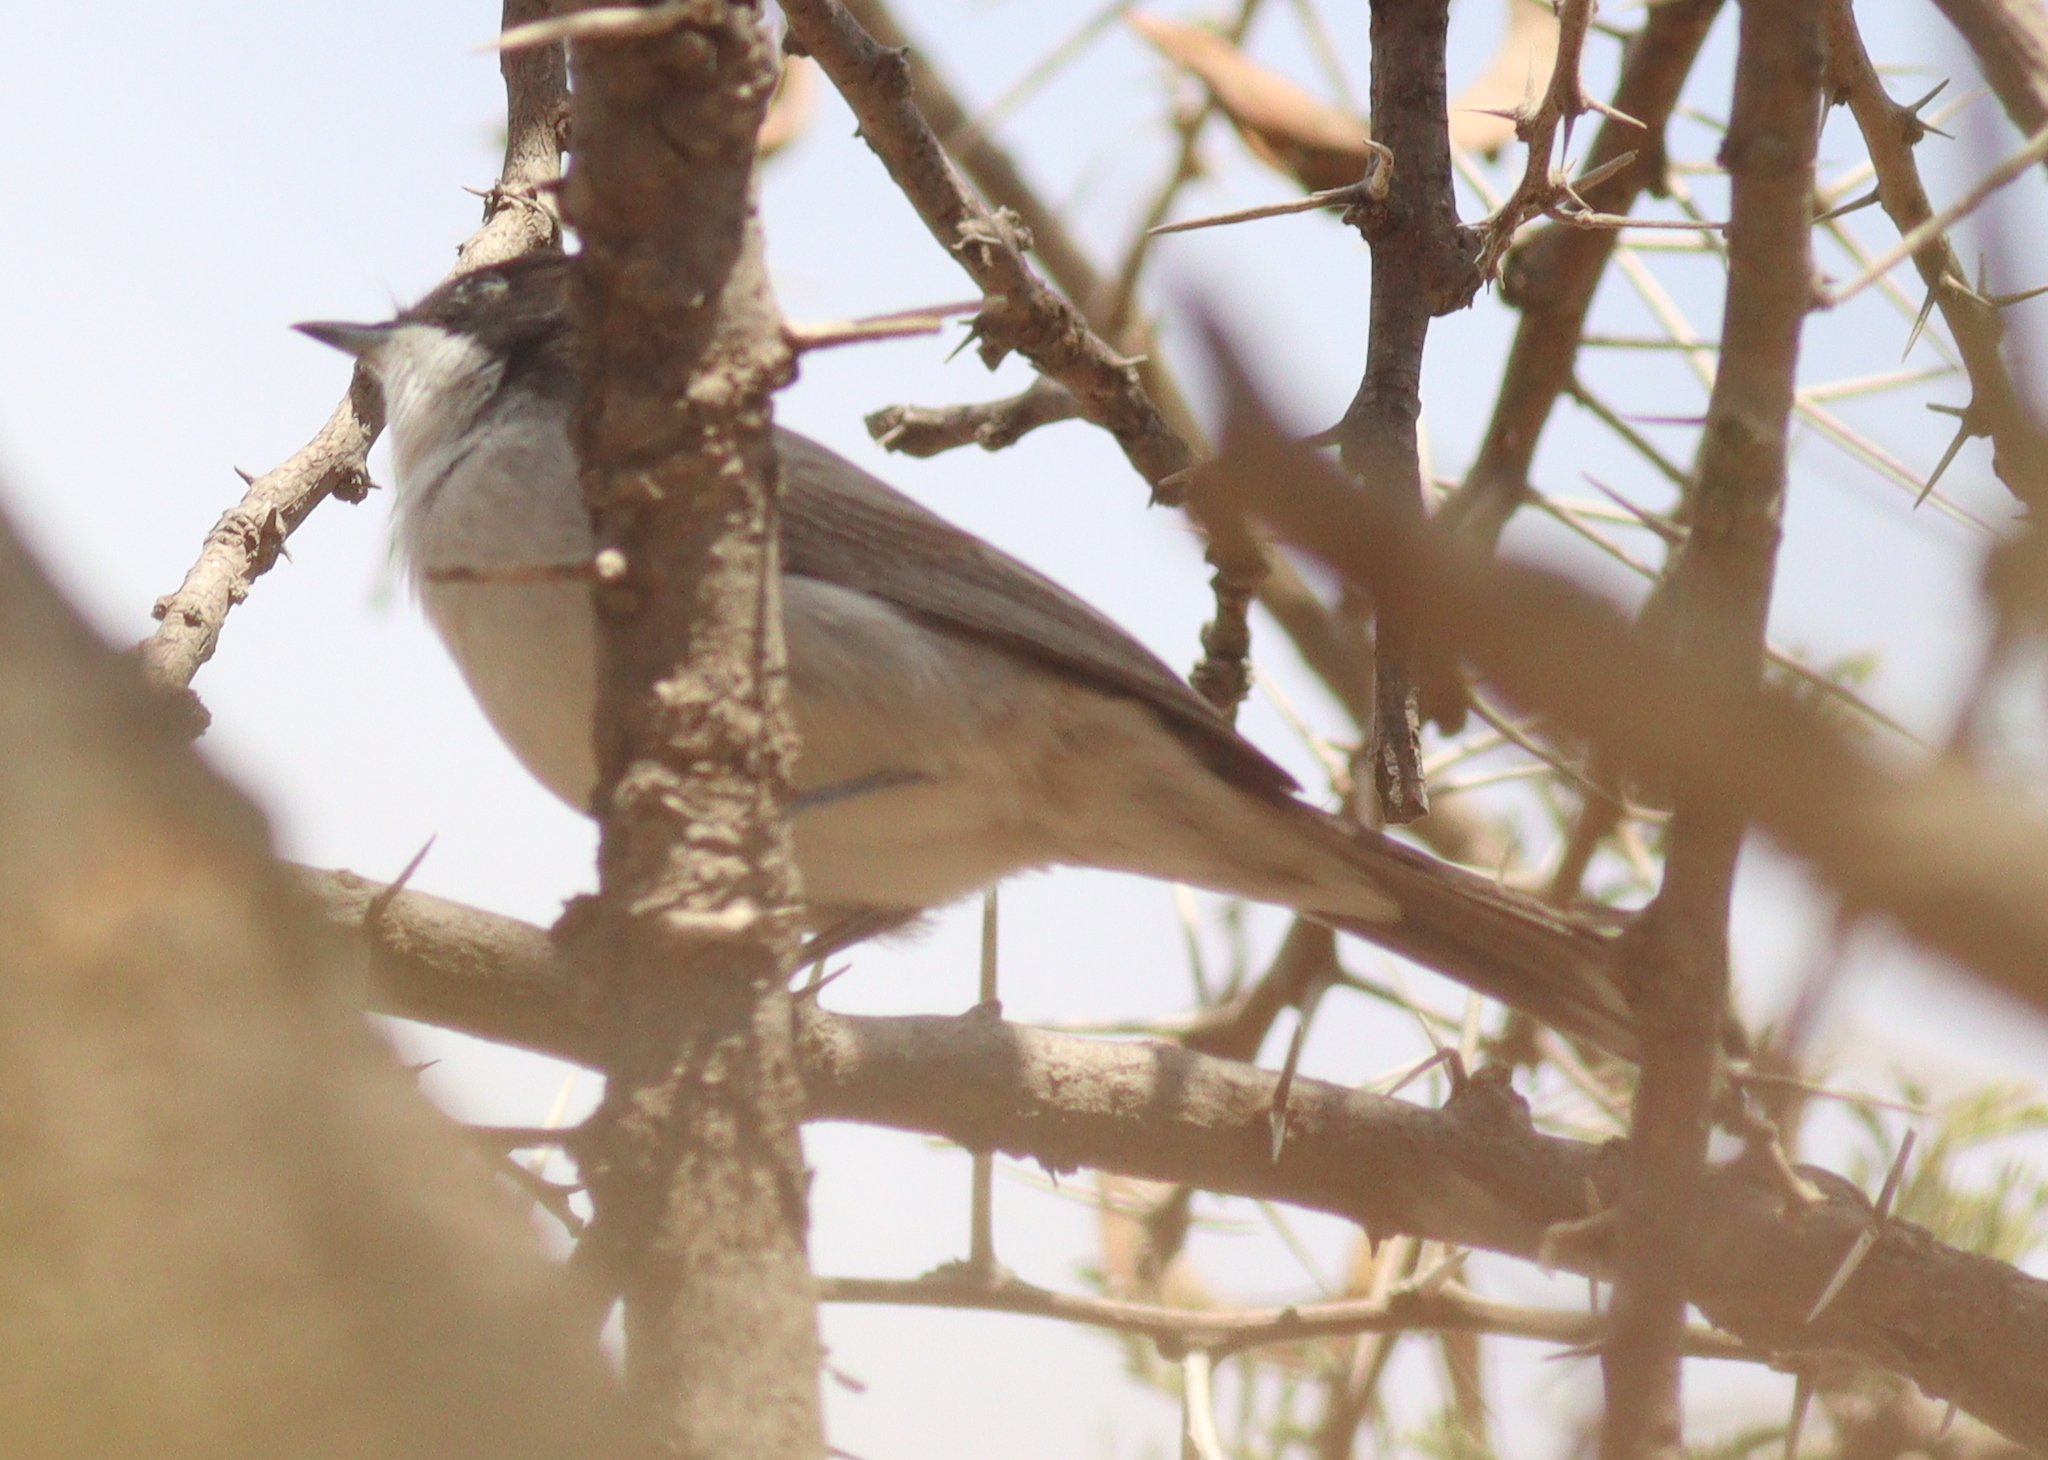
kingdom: Animalia
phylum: Chordata
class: Aves
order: Passeriformes
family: Sylviidae
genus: Sylvia
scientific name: Sylvia leucomelaena
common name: Arabian warbler
